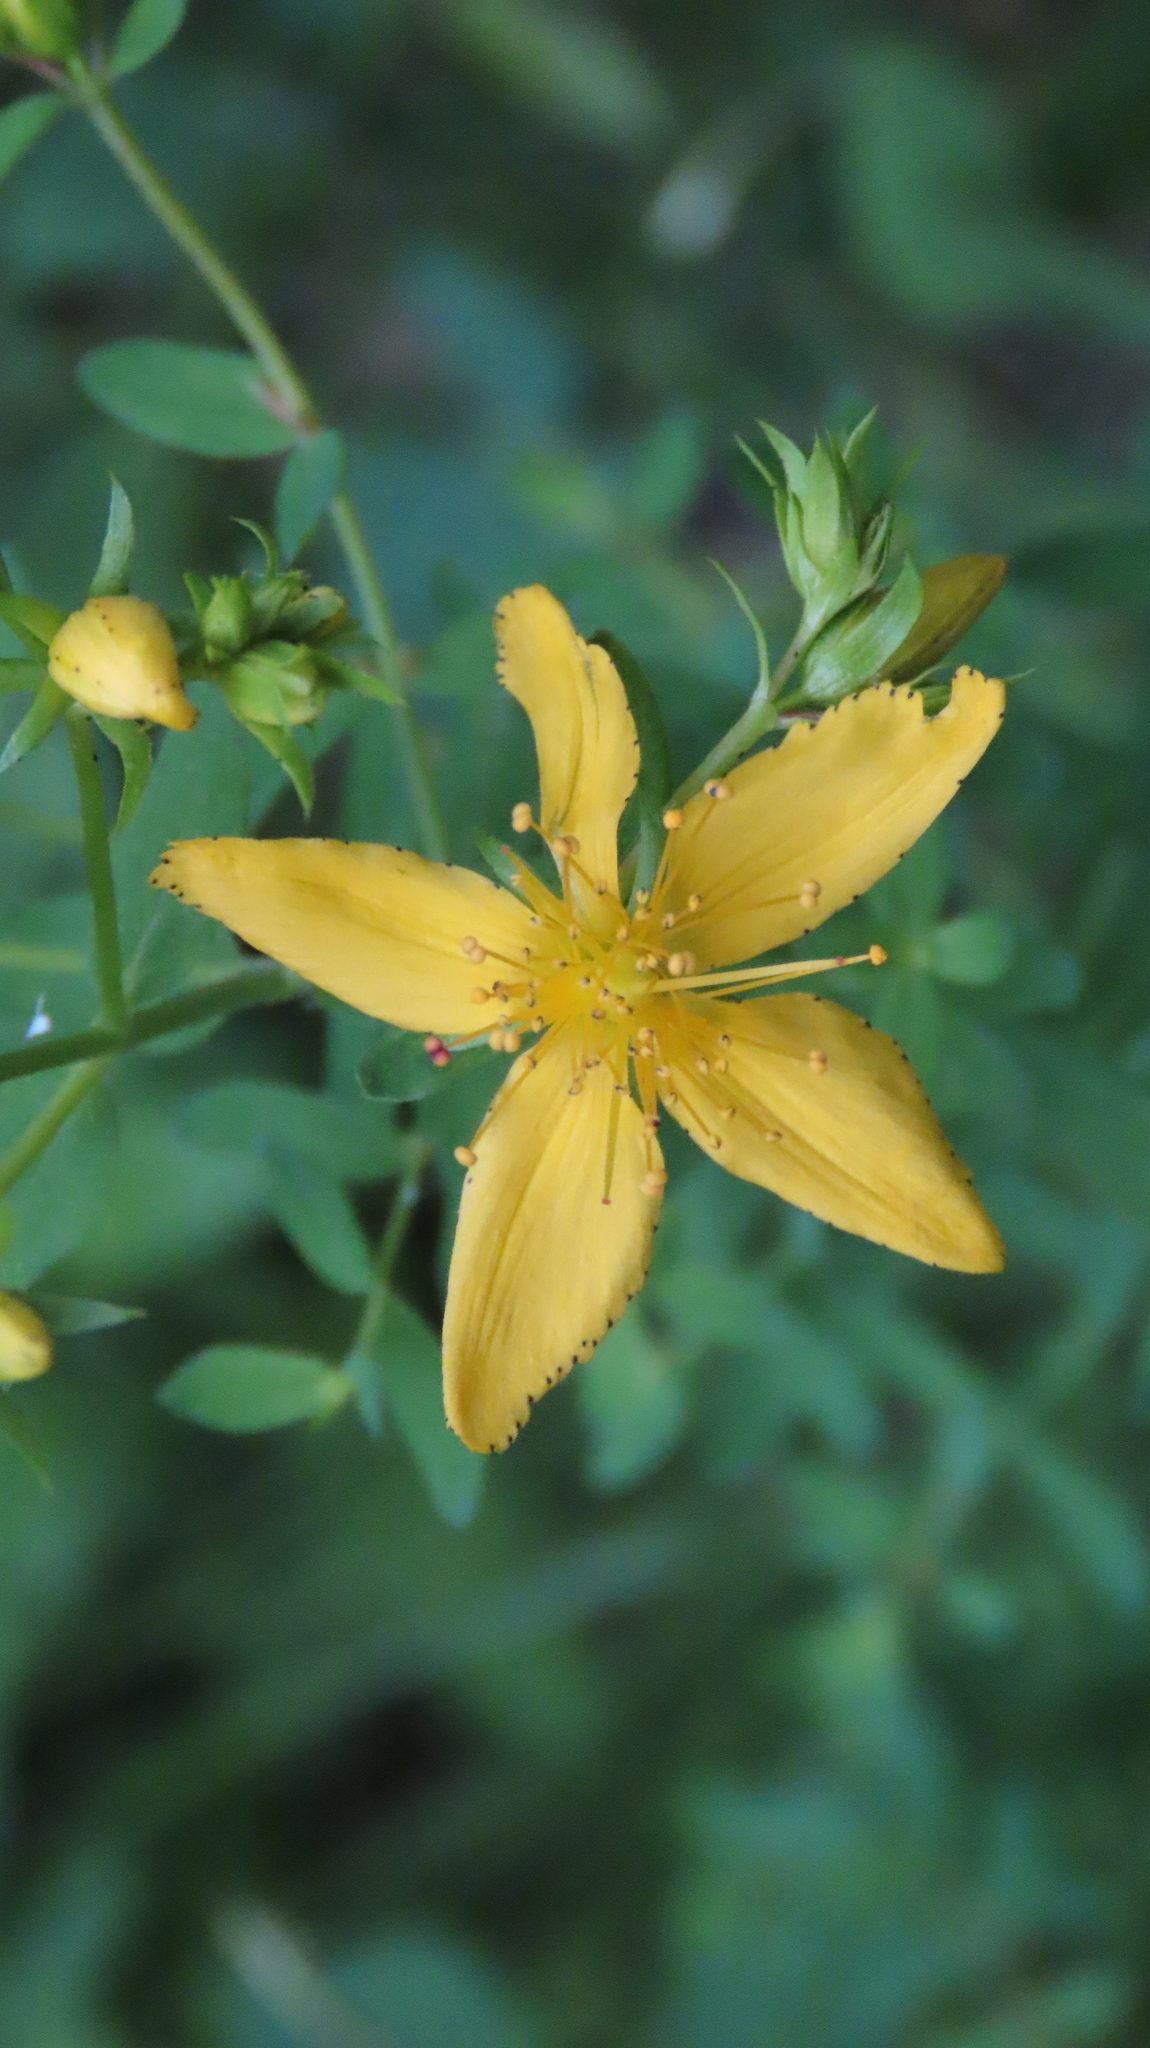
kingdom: Plantae
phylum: Tracheophyta
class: Magnoliopsida
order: Malpighiales
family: Hypericaceae
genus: Hypericum
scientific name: Hypericum perforatum
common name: Common st. johnswort
